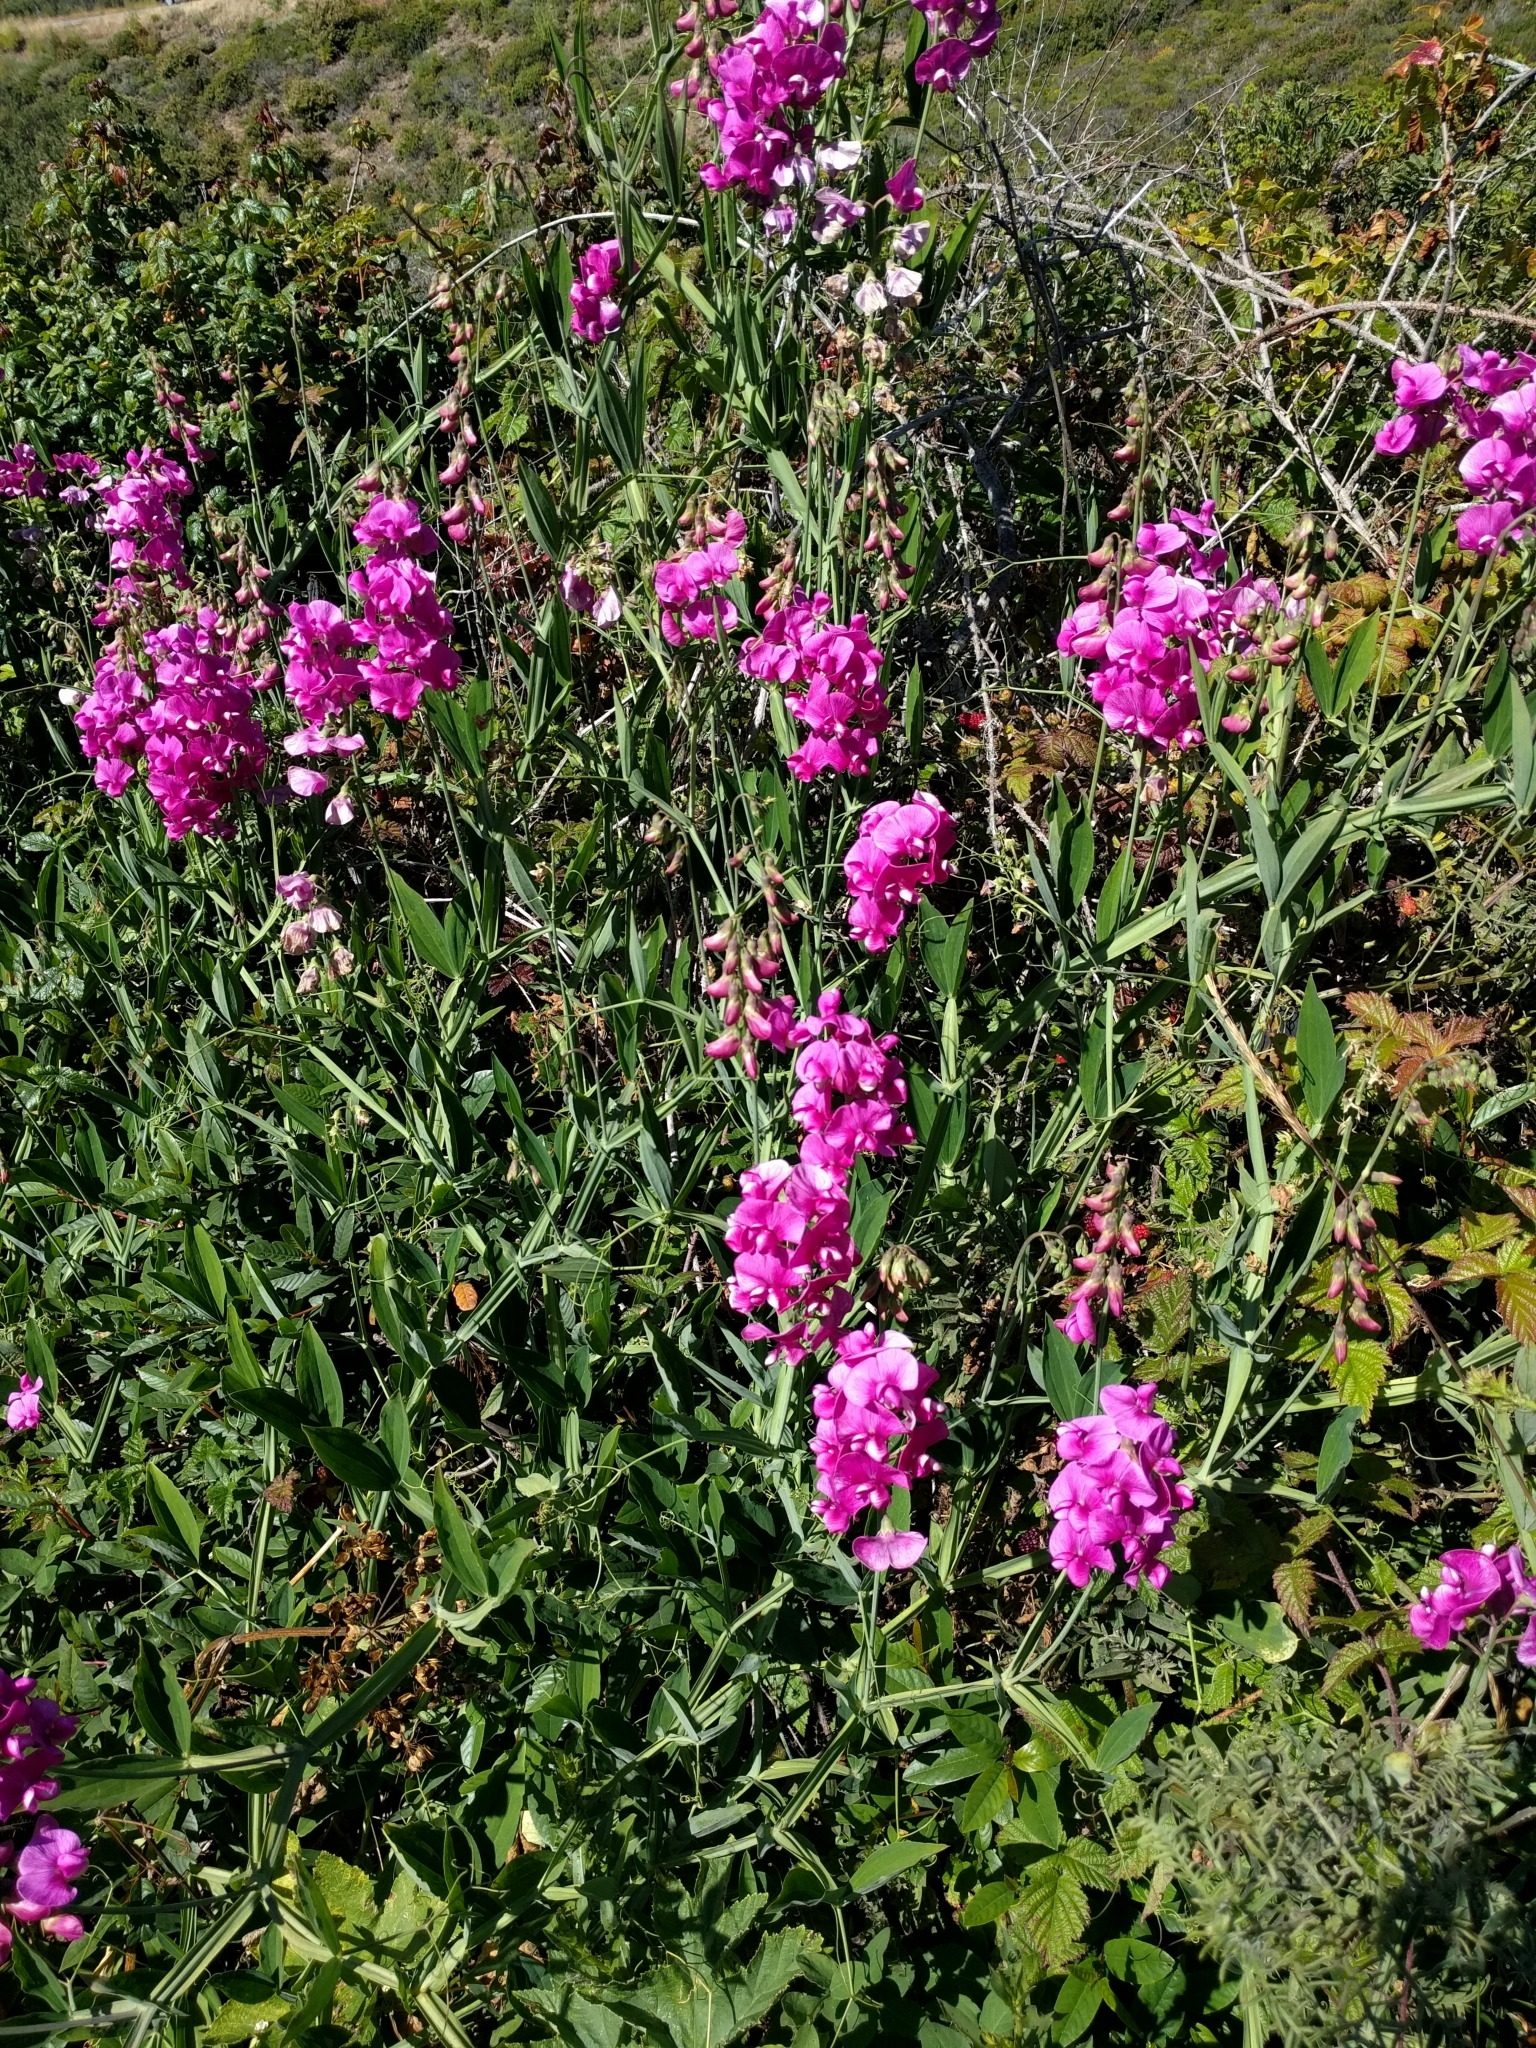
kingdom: Plantae
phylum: Tracheophyta
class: Magnoliopsida
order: Fabales
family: Fabaceae
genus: Lathyrus
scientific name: Lathyrus latifolius
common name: Perennial pea
